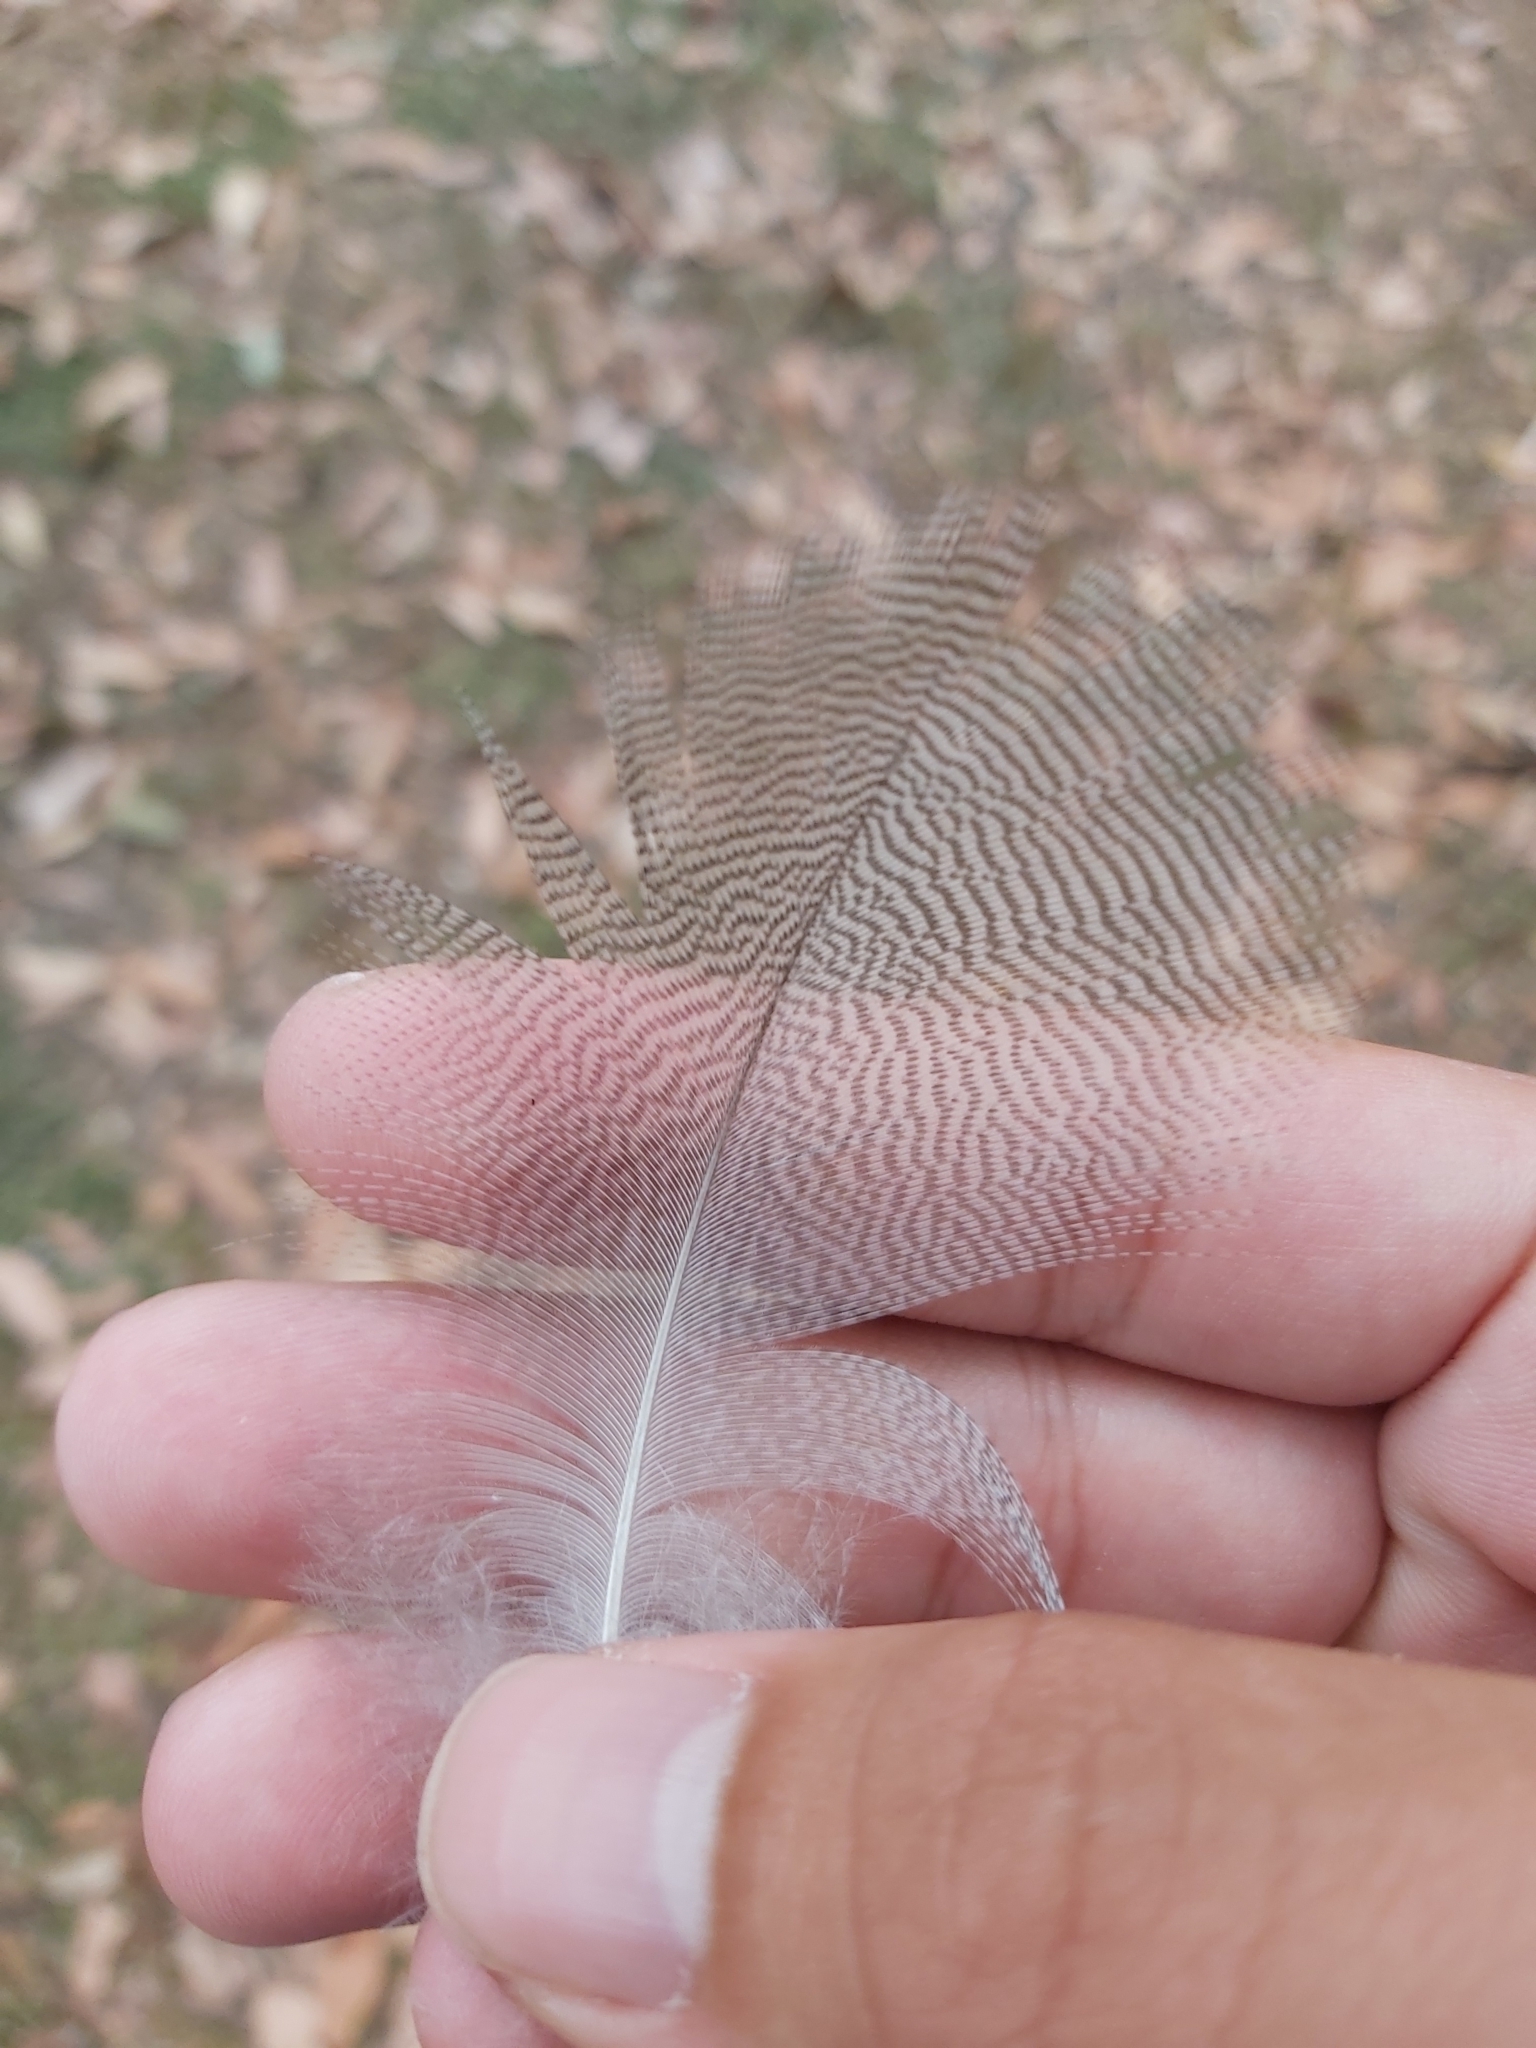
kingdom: Animalia
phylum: Chordata
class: Aves
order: Anseriformes
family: Anatidae
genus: Chenonetta
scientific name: Chenonetta jubata
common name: Maned duck
